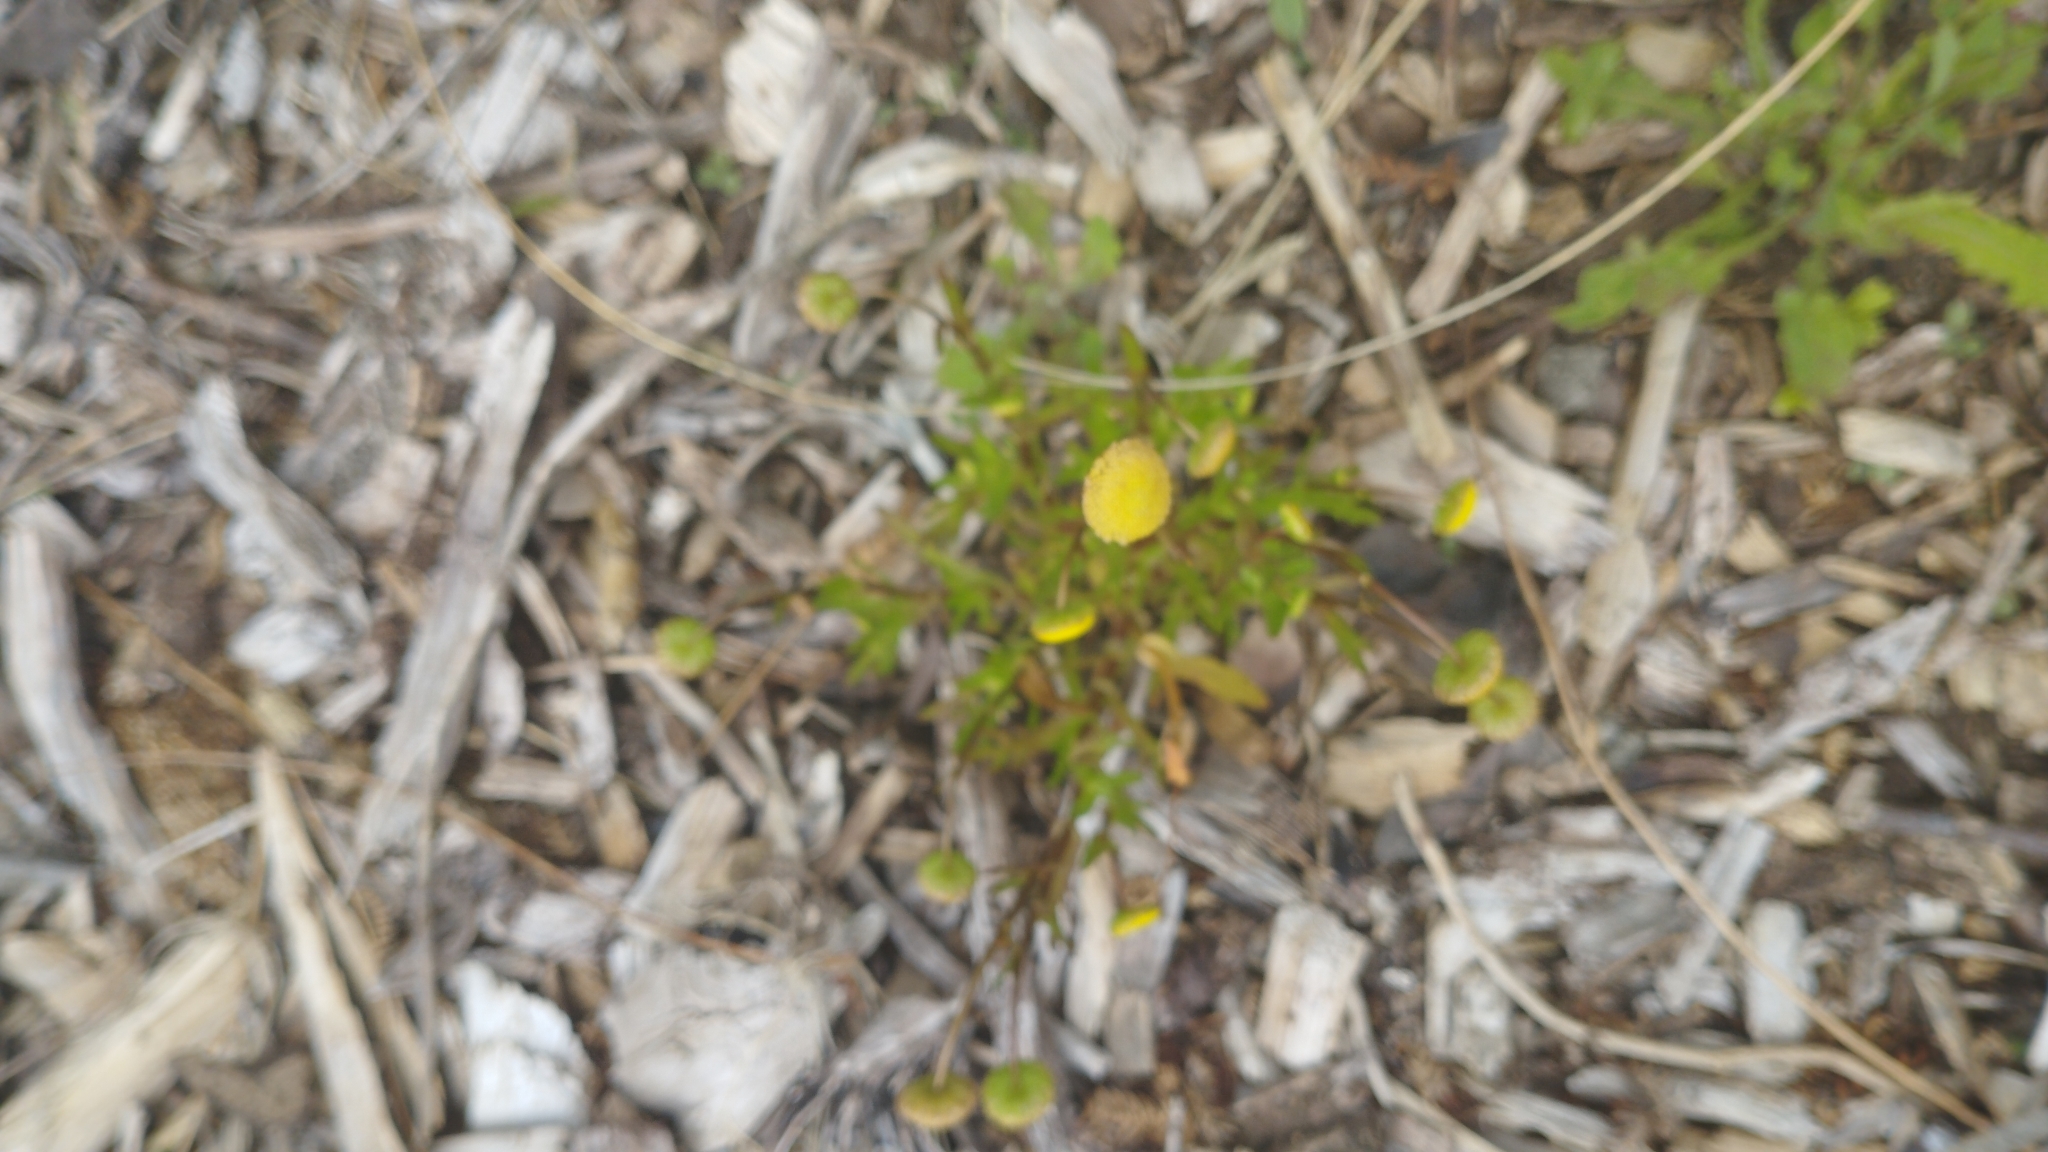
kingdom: Plantae
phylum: Tracheophyta
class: Magnoliopsida
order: Asterales
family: Asteraceae
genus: Cotula
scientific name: Cotula coronopifolia
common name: Buttonweed
